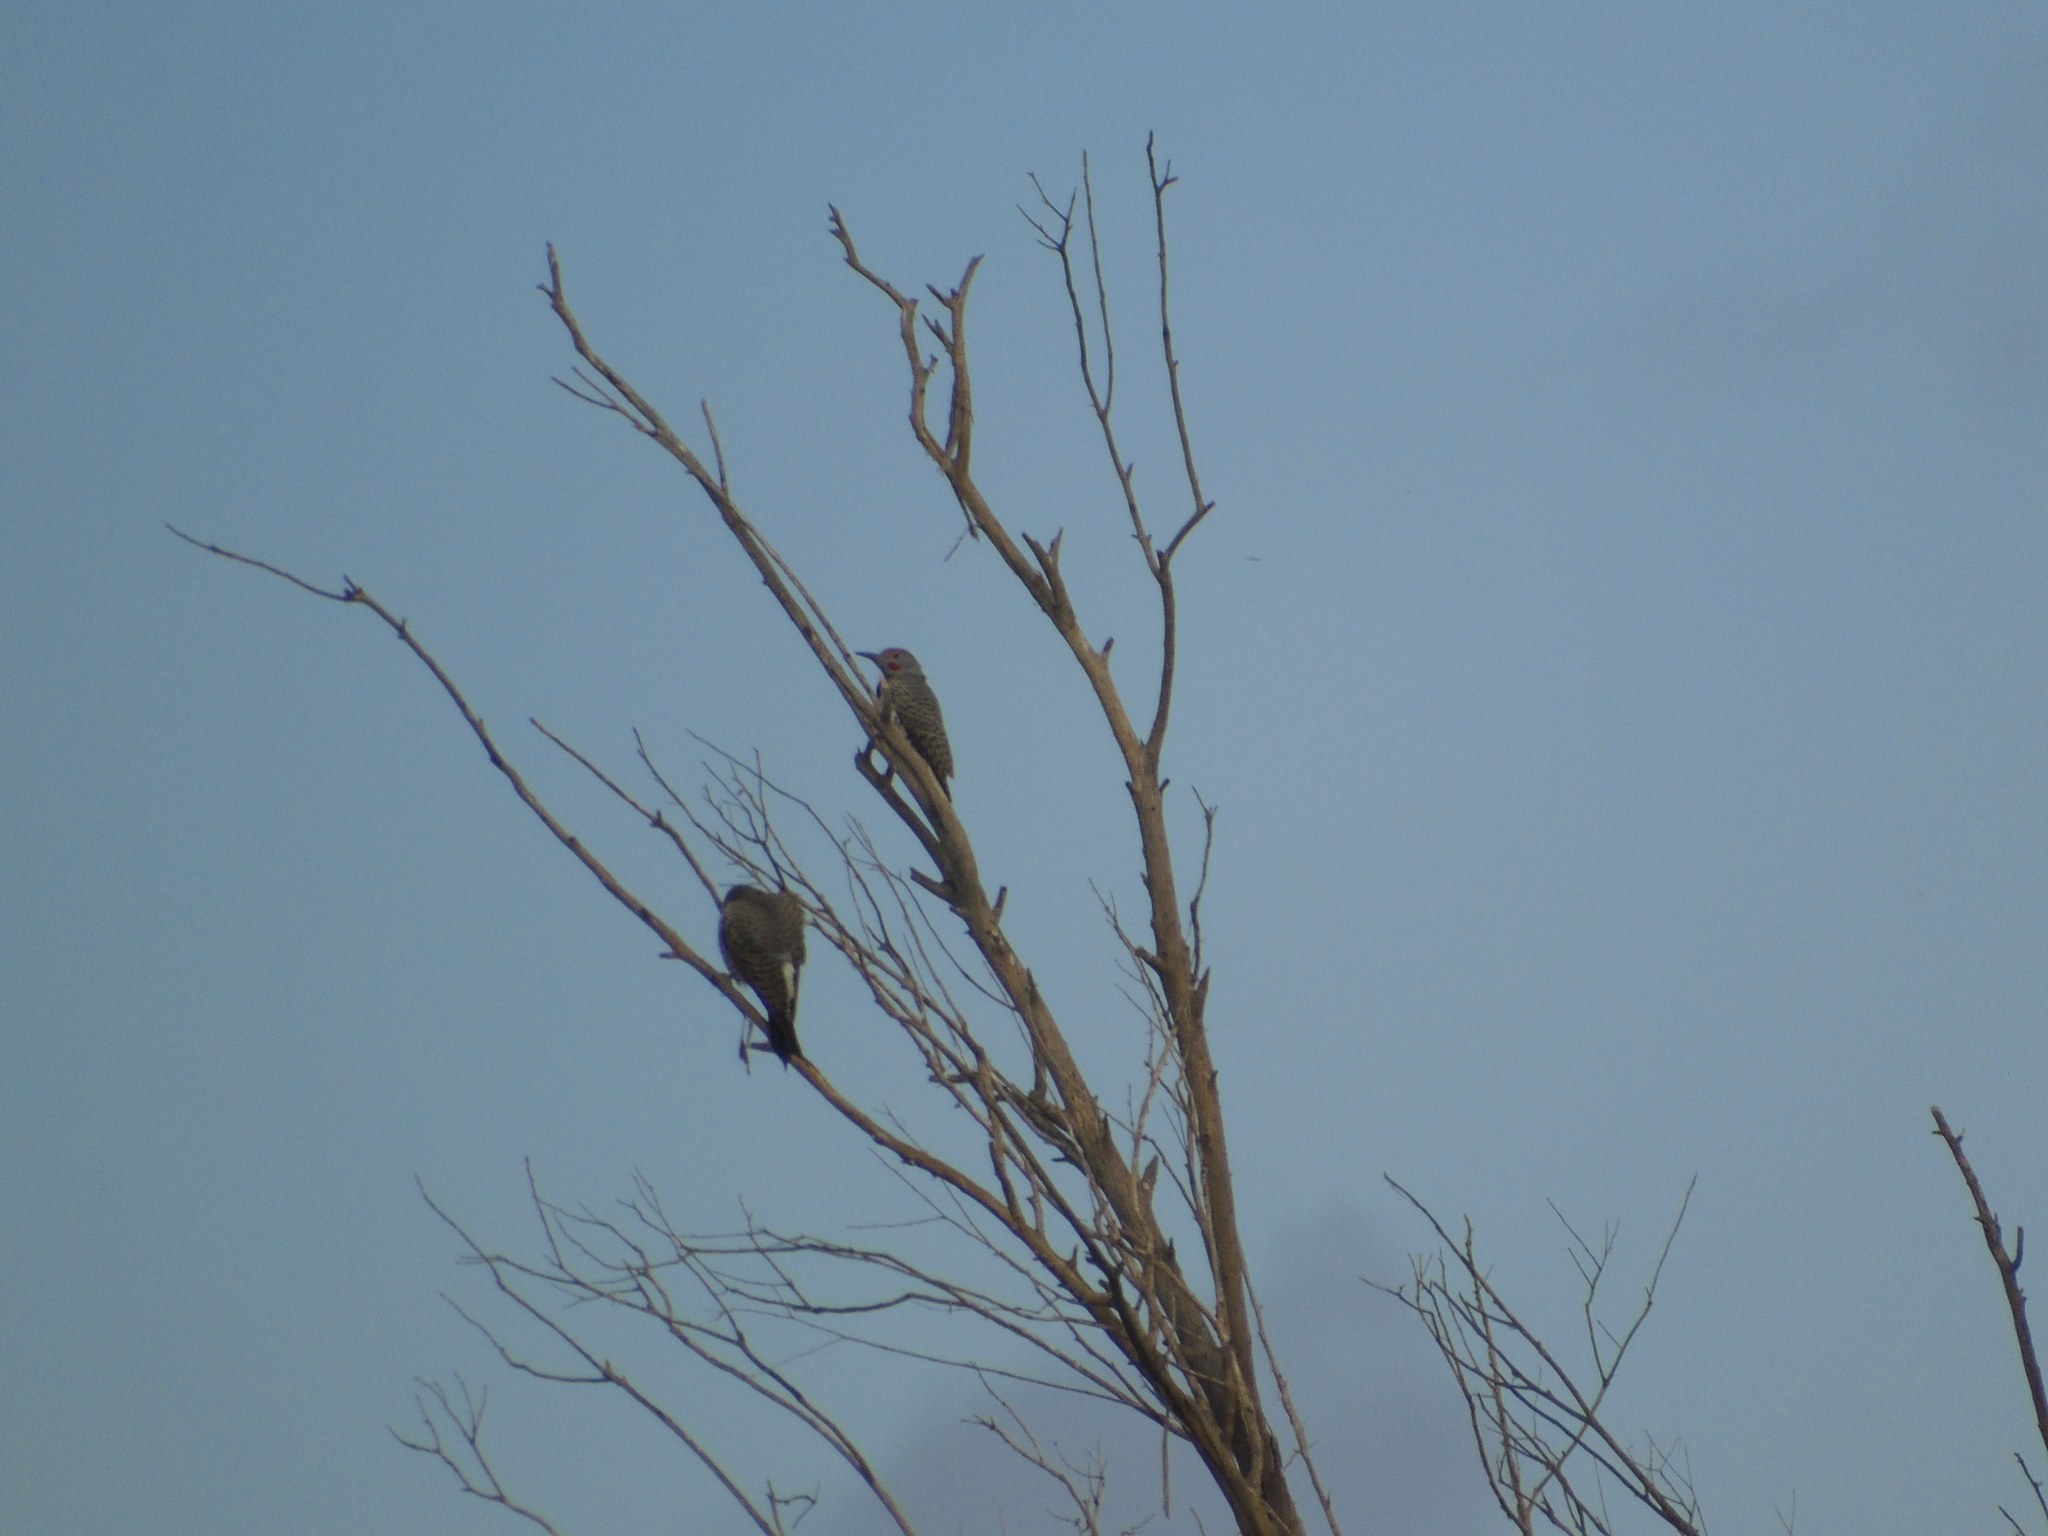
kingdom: Animalia
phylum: Chordata
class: Aves
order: Piciformes
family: Picidae
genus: Colaptes
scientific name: Colaptes chrysoides
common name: Gilded flicker
